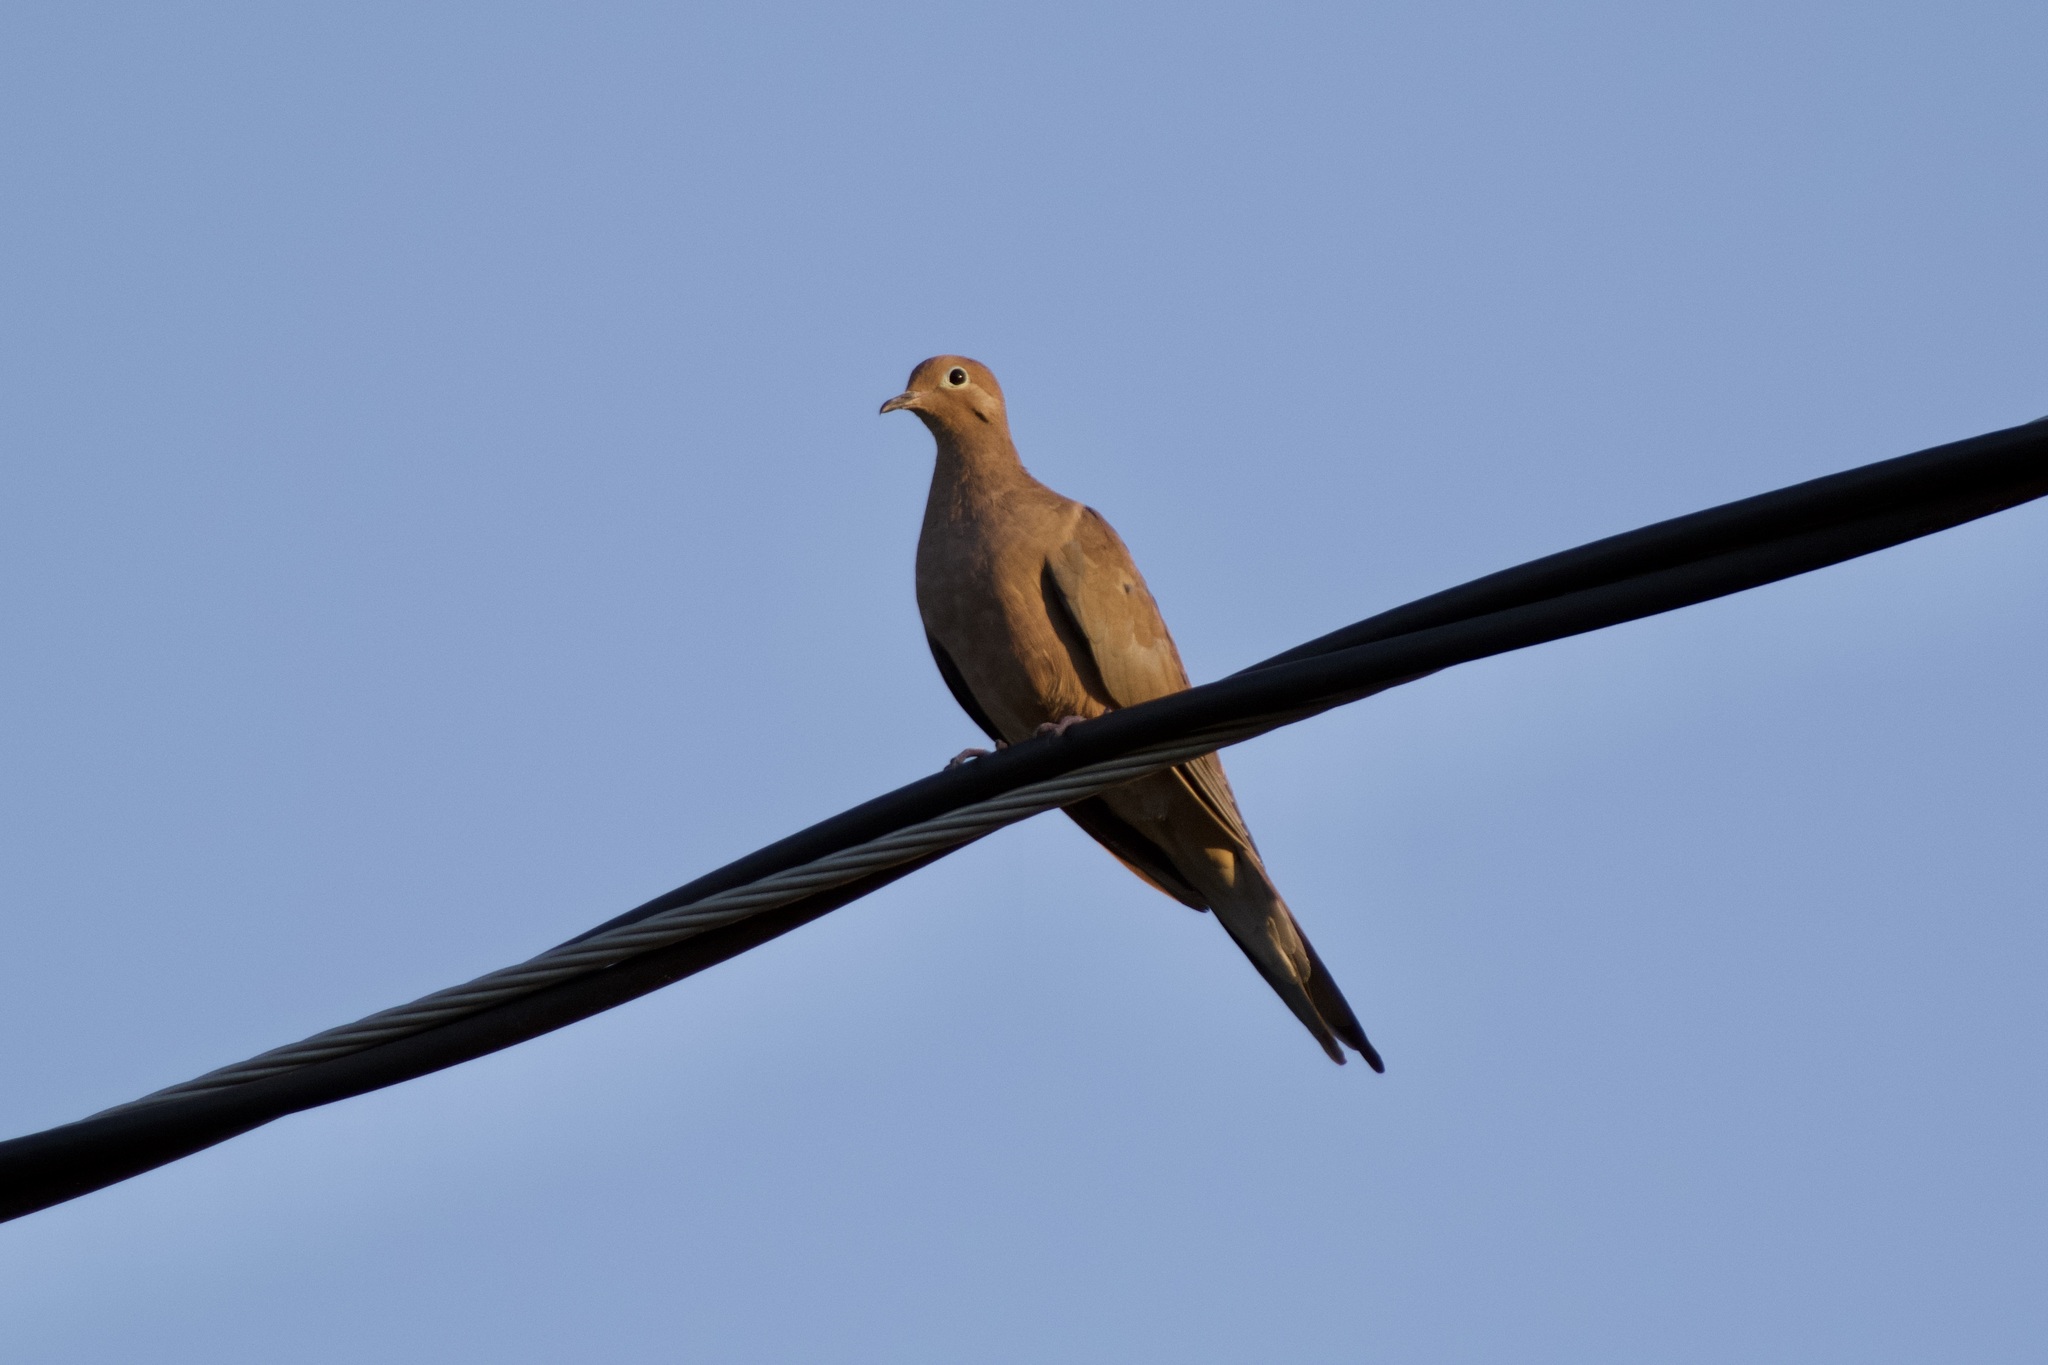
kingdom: Animalia
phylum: Chordata
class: Aves
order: Columbiformes
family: Columbidae
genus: Zenaida
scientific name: Zenaida macroura
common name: Mourning dove
